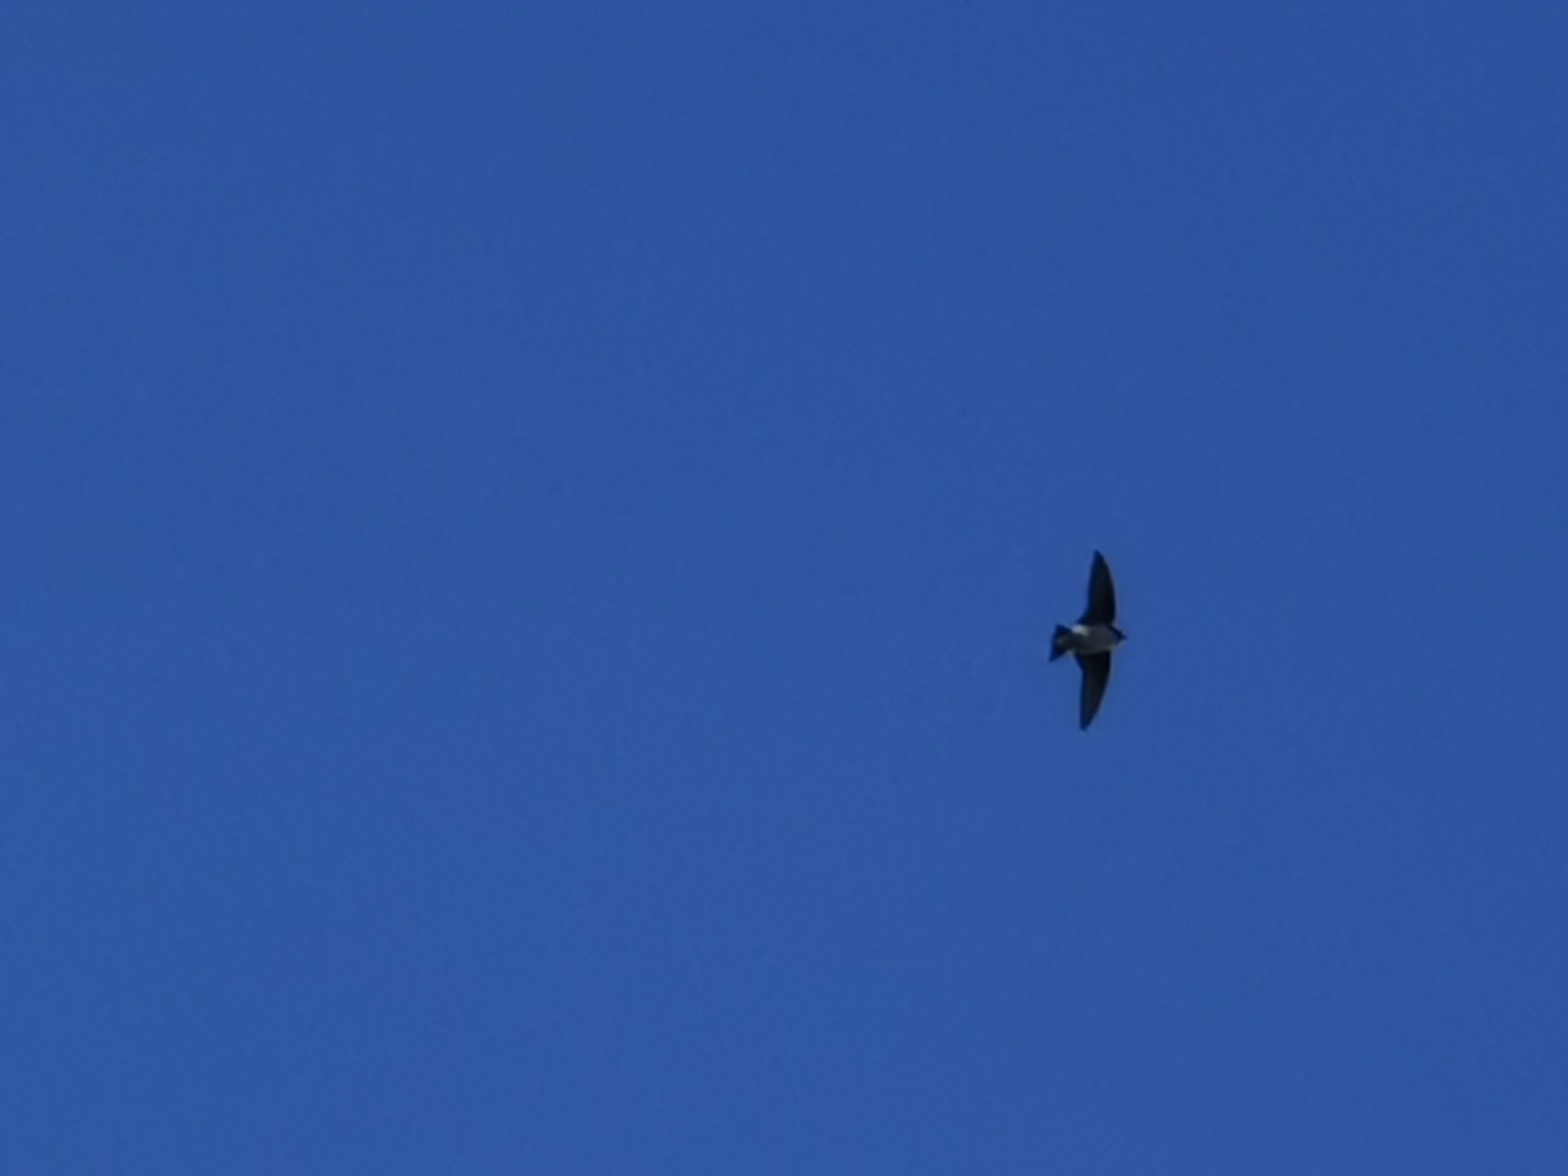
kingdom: Animalia
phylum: Chordata
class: Aves
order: Passeriformes
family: Hirundinidae
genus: Tachycineta
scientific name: Tachycineta bicolor
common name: Tree swallow
